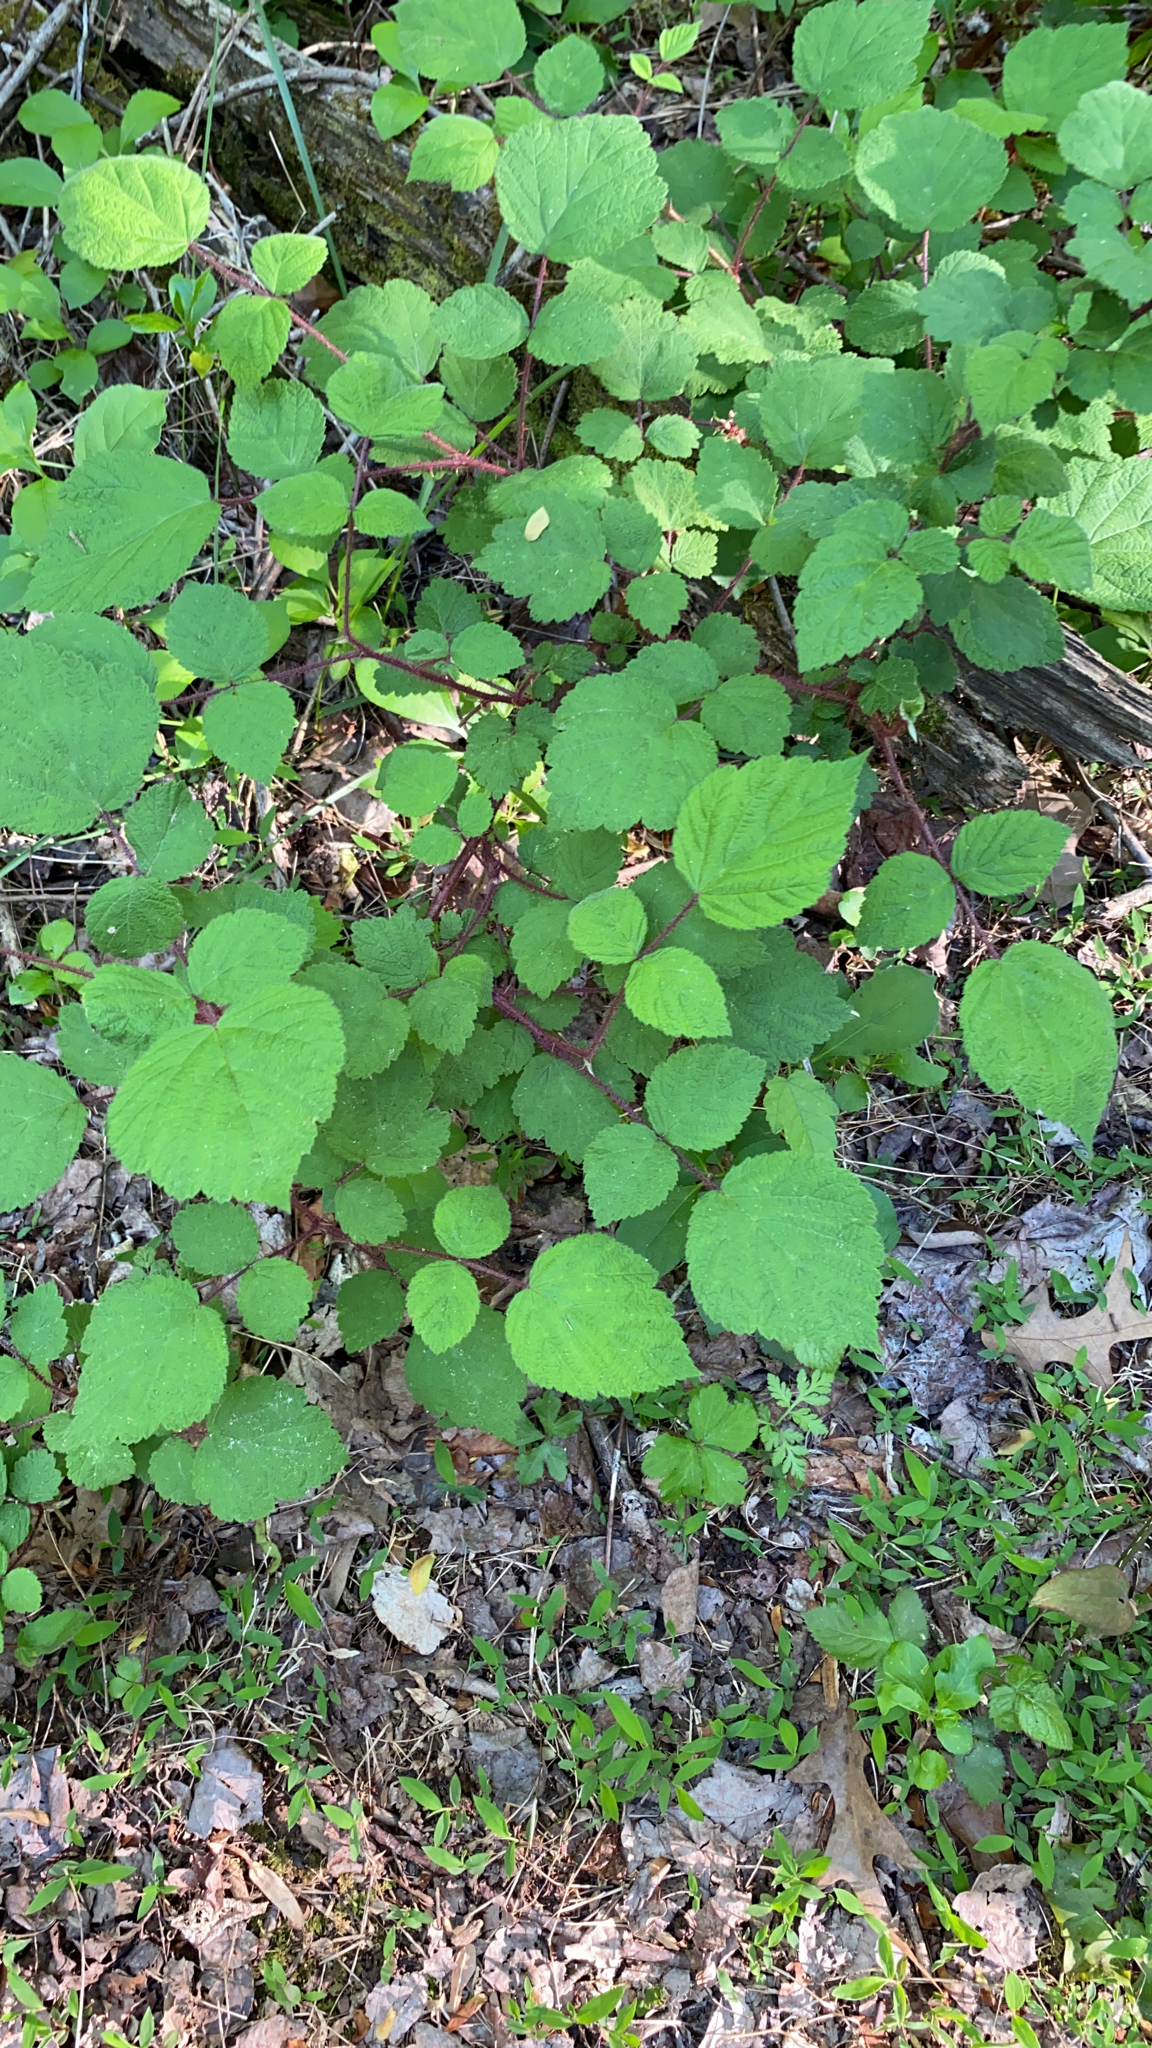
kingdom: Plantae
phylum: Tracheophyta
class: Magnoliopsida
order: Rosales
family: Rosaceae
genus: Rubus
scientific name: Rubus phoenicolasius
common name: Japanese wineberry
